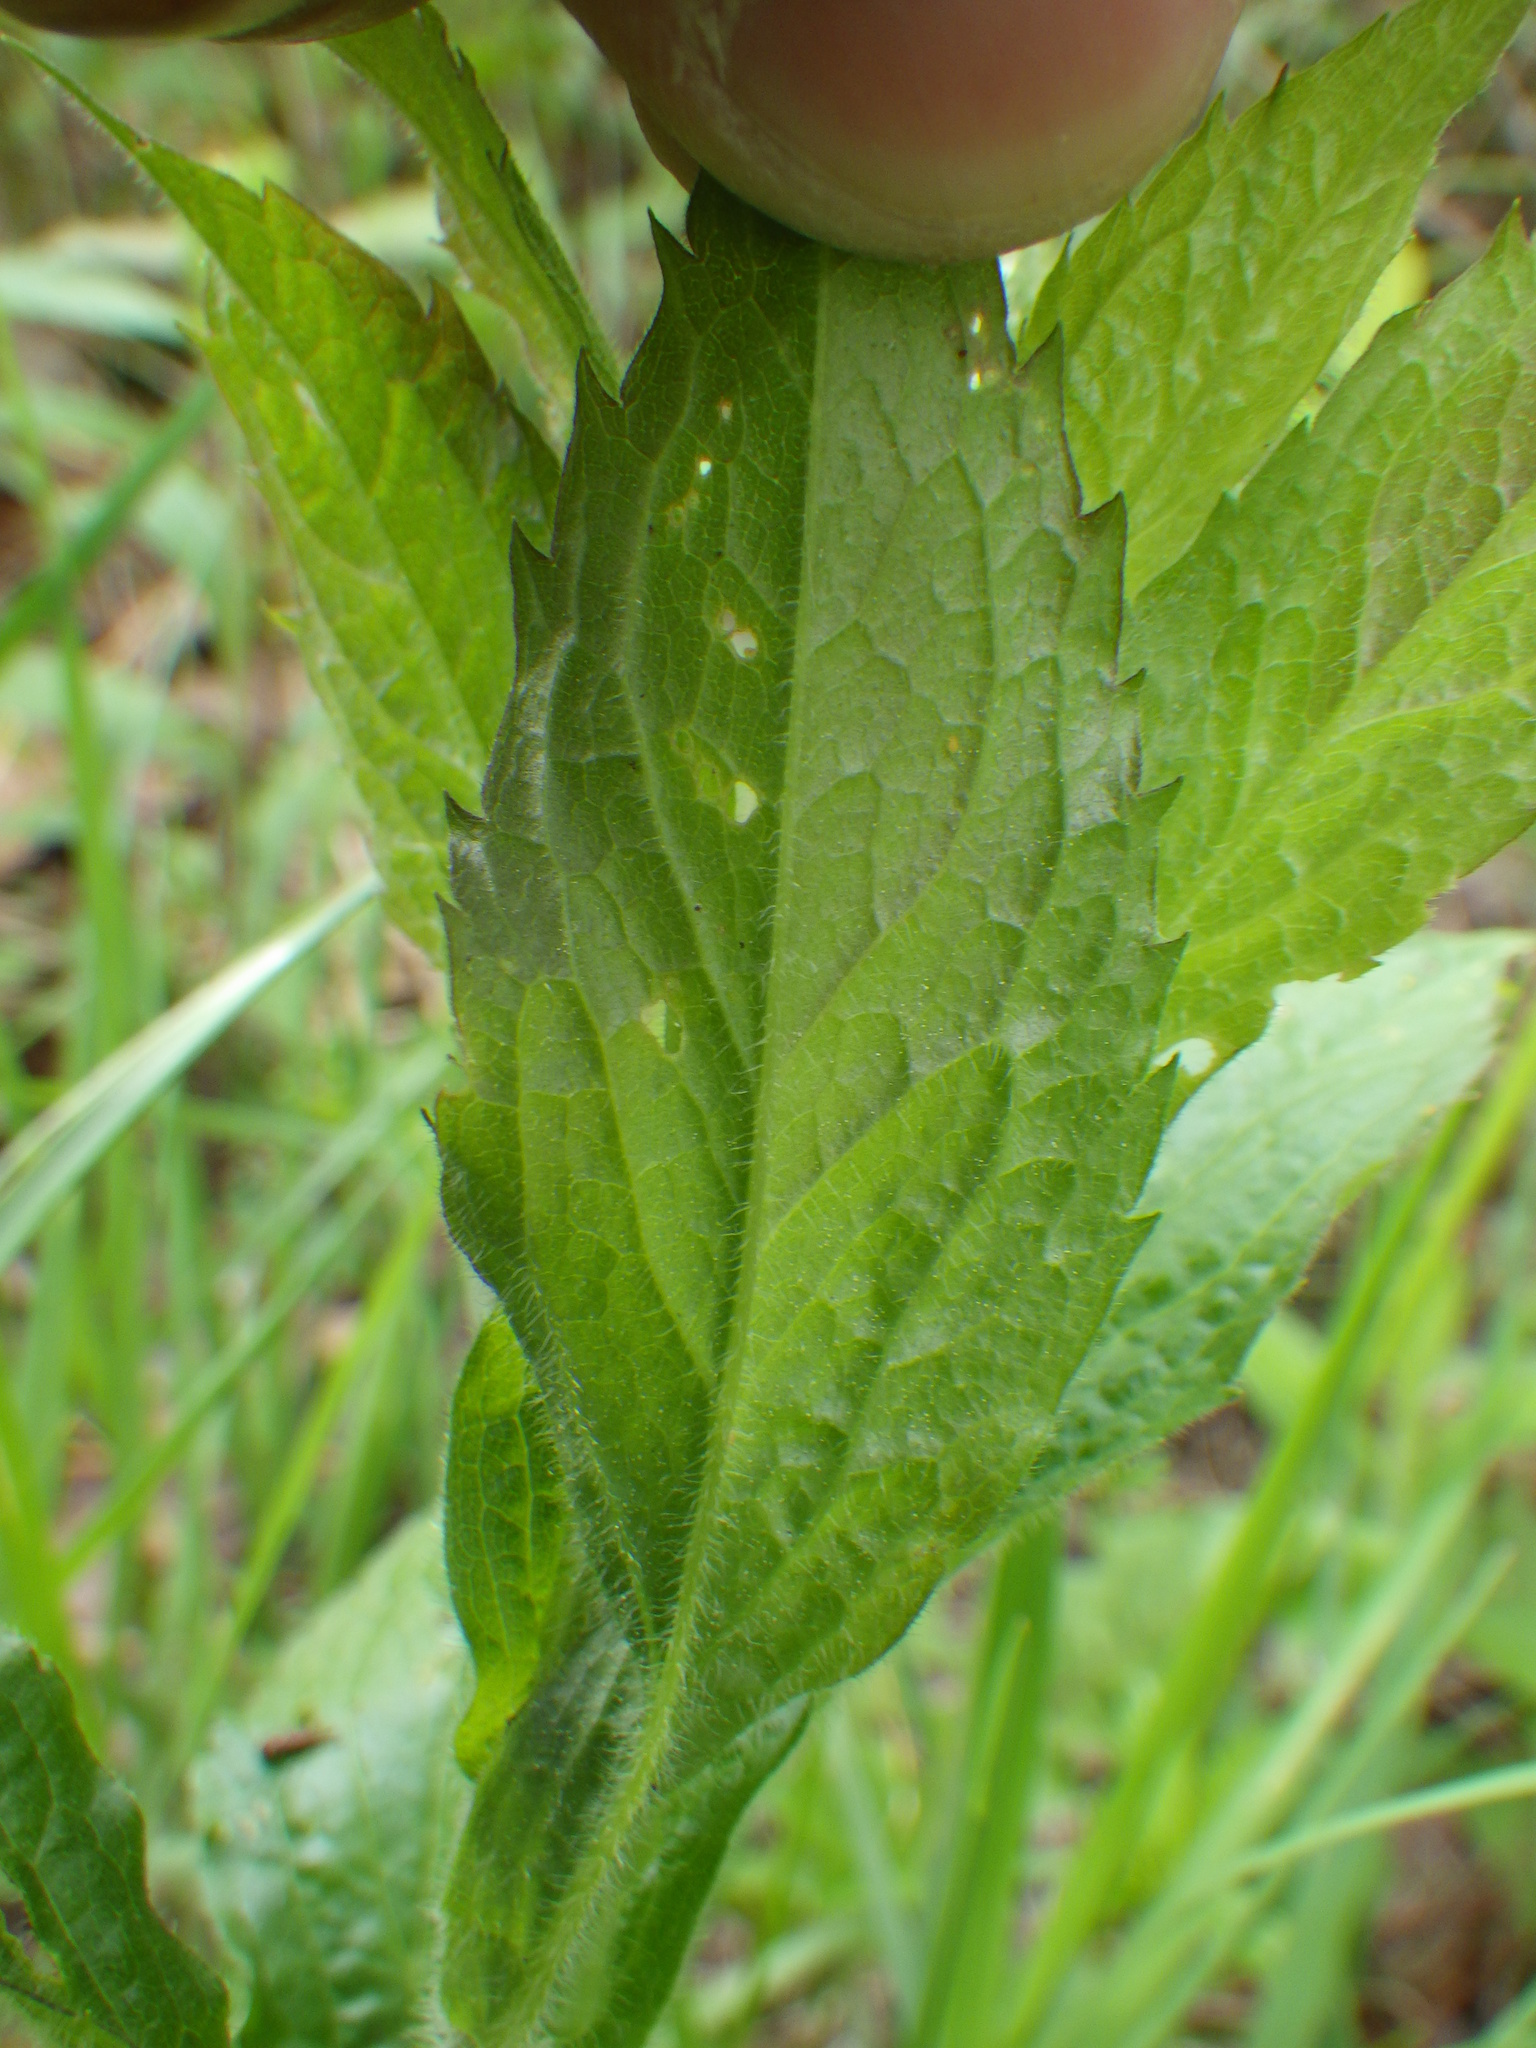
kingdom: Plantae
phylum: Tracheophyta
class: Magnoliopsida
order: Asterales
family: Asteraceae
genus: Solidago
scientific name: Solidago rugosa
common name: Rough-stemmed goldenrod
